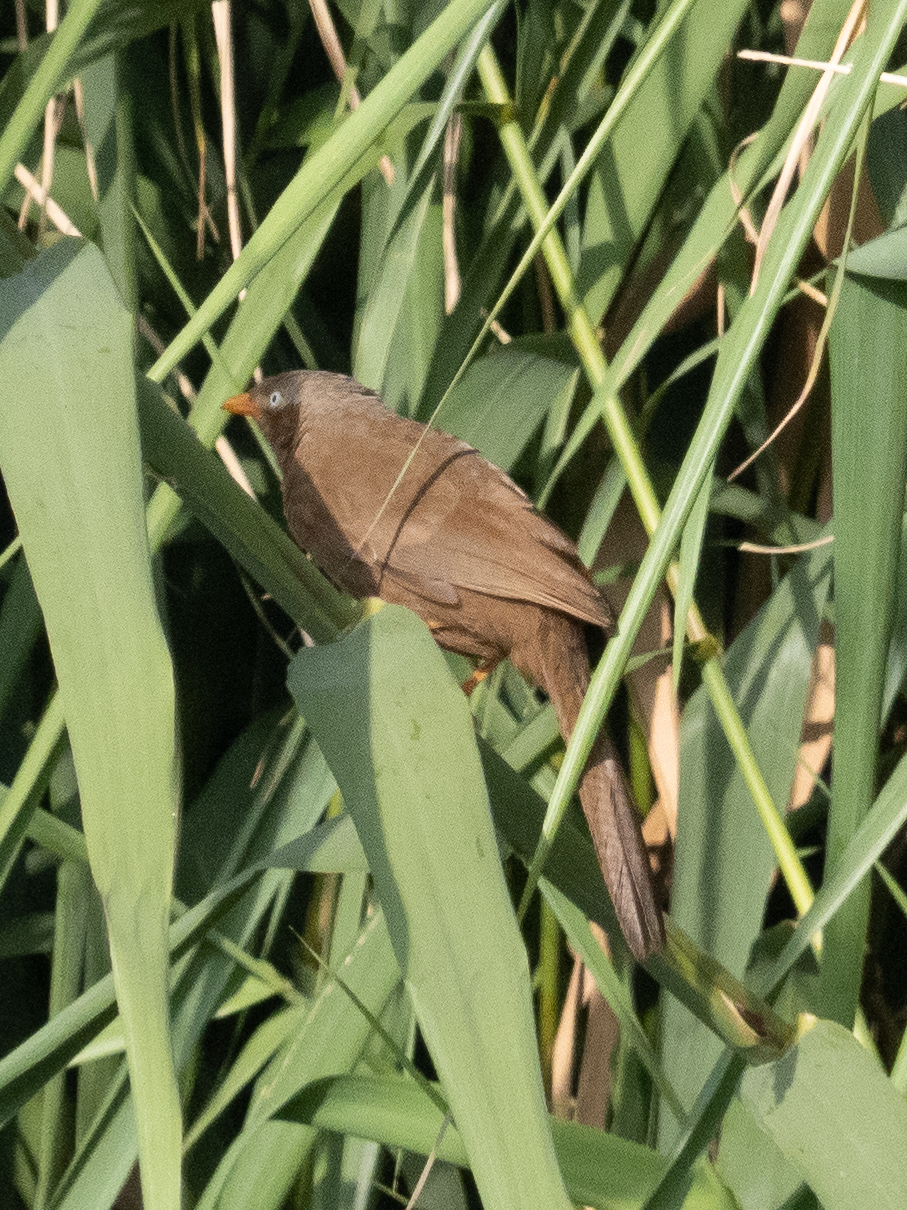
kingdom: Animalia
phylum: Chordata
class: Aves
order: Passeriformes
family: Leiothrichidae
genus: Turdoides
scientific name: Turdoides rufescens
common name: Orange-billed babbler
